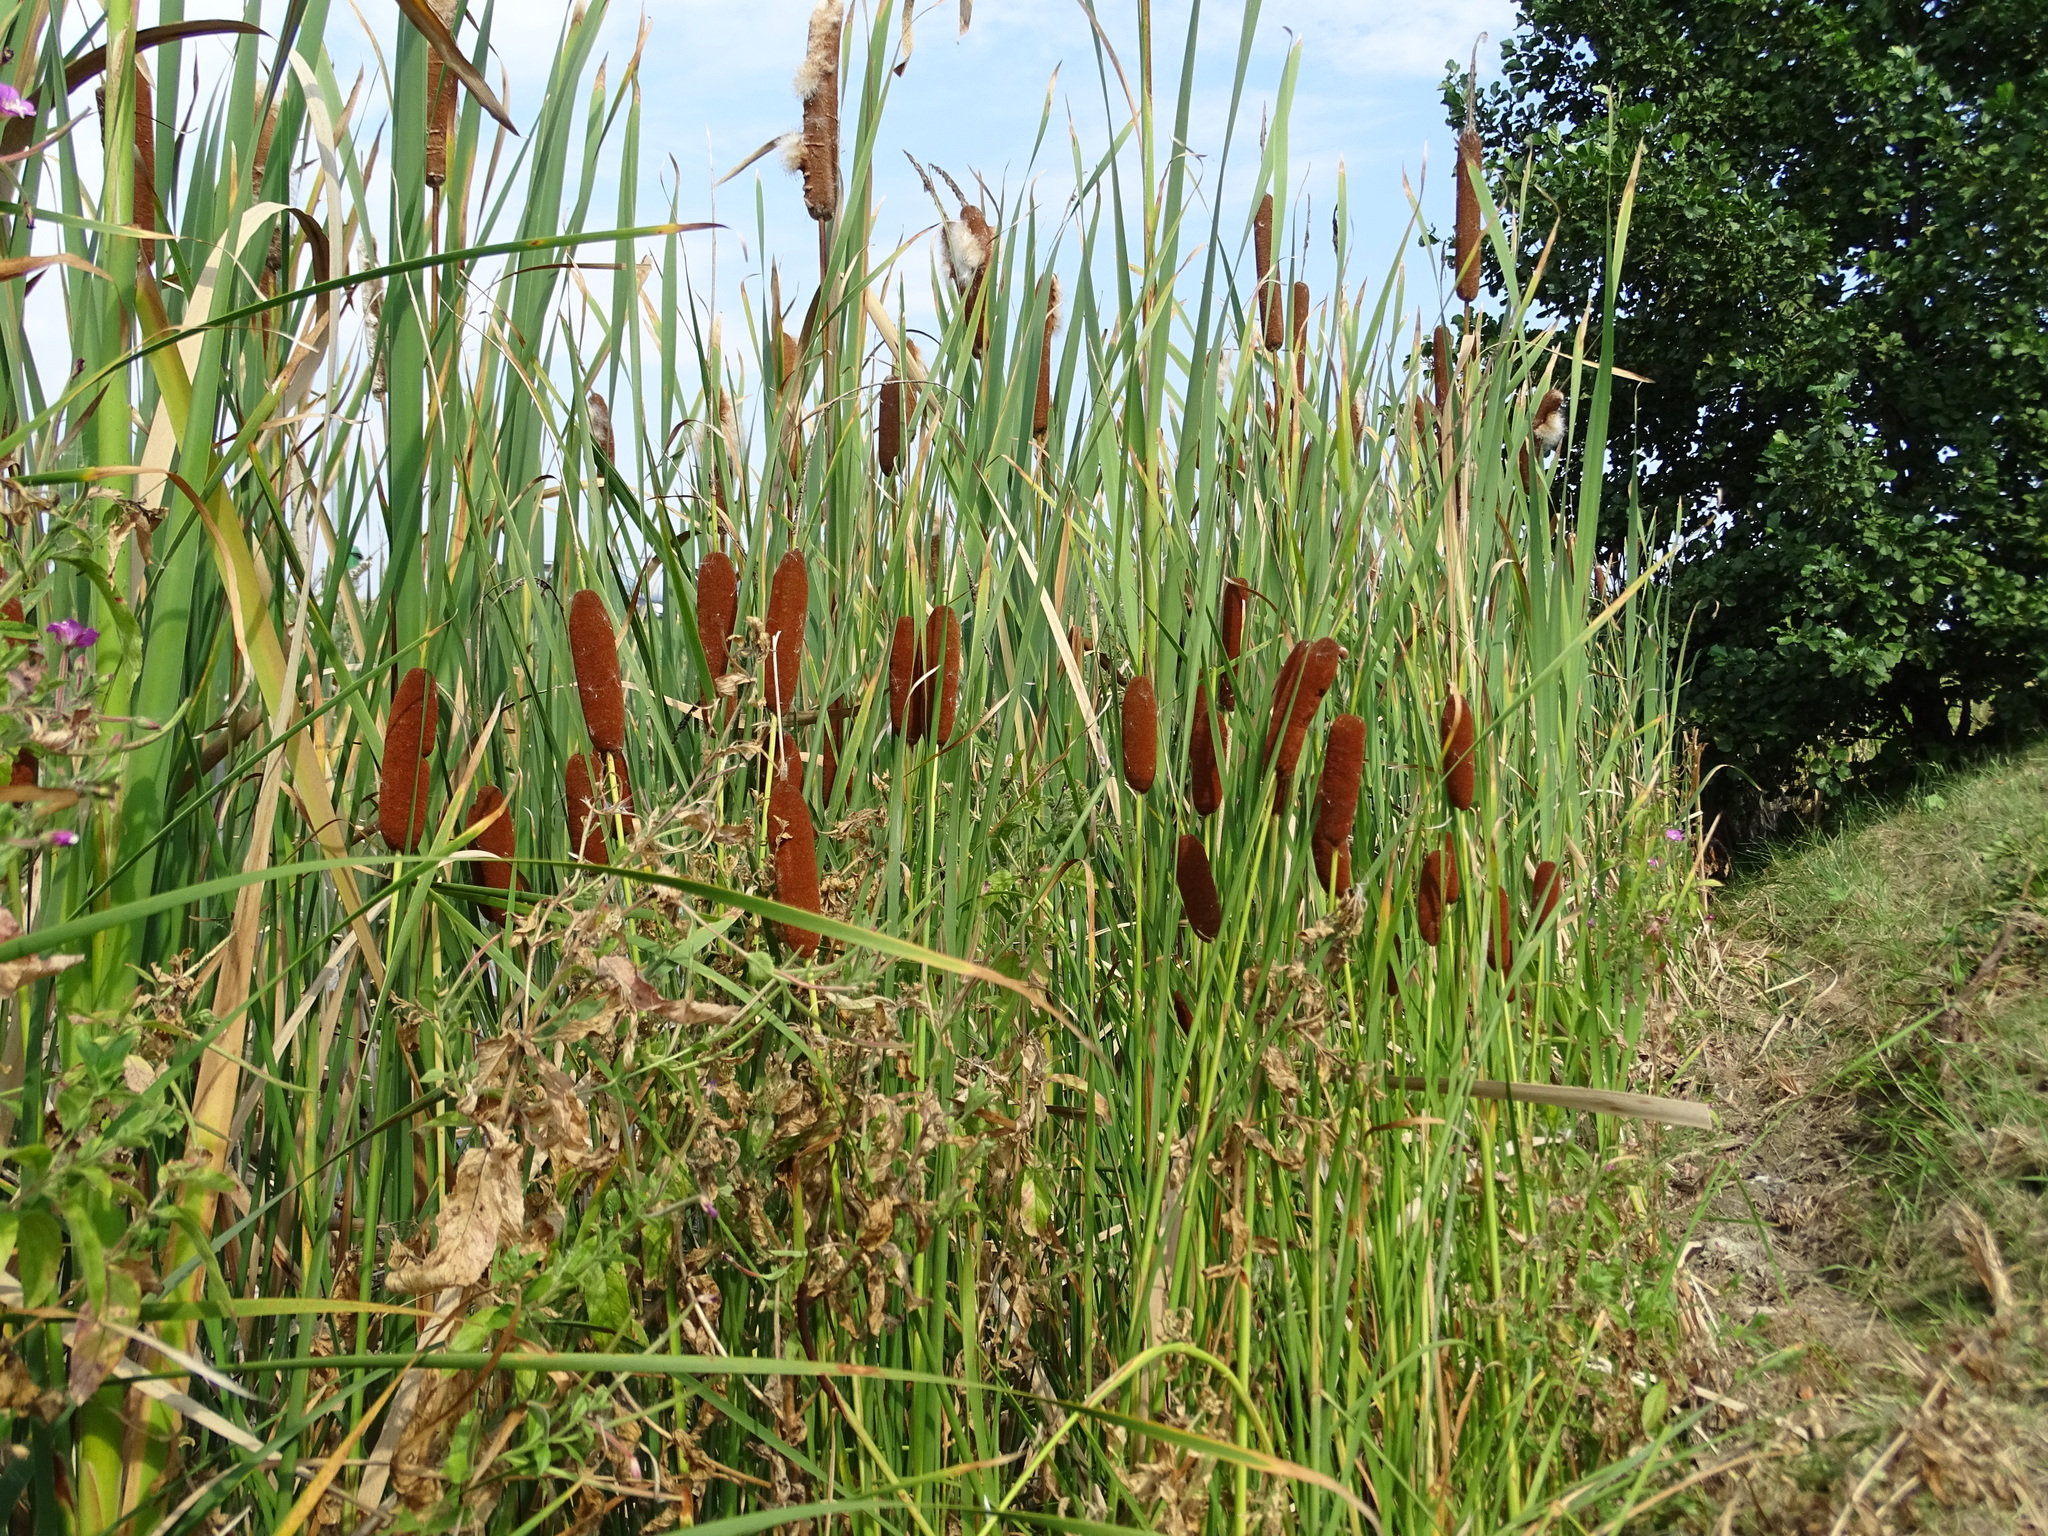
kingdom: Plantae
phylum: Tracheophyta
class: Liliopsida
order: Poales
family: Typhaceae
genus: Typha
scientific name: Typha laxmannii
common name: Laxman’s bulrush
